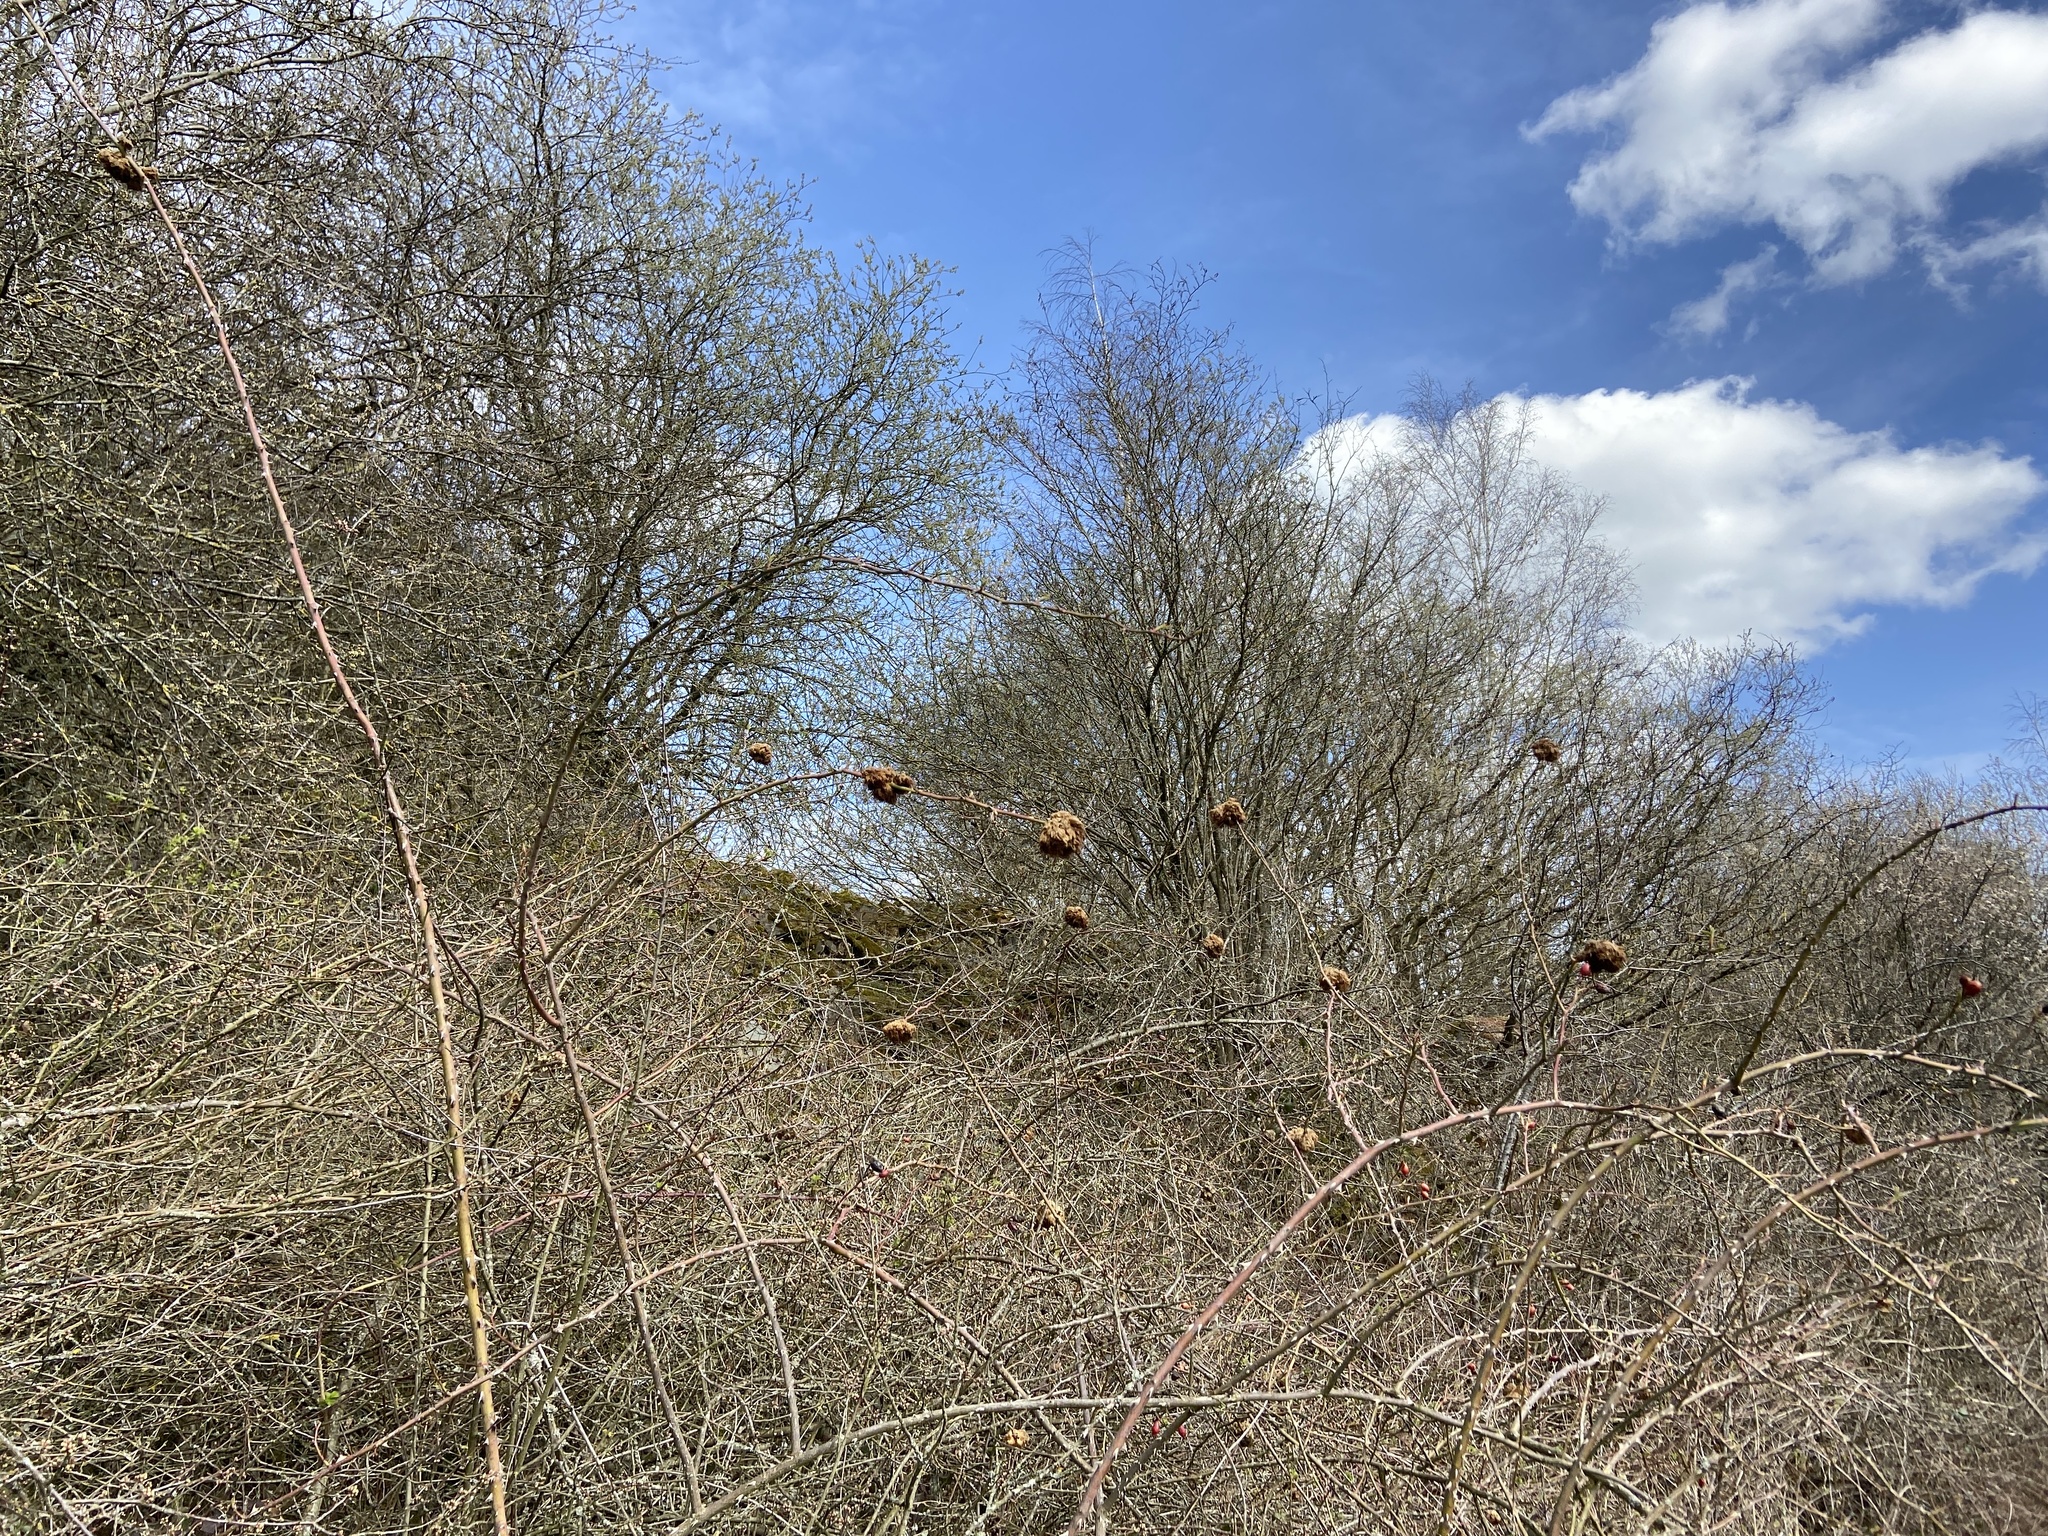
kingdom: Animalia
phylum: Arthropoda
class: Insecta
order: Hymenoptera
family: Cynipidae
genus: Diplolepis
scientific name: Diplolepis rosae
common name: Bedeguar gall
